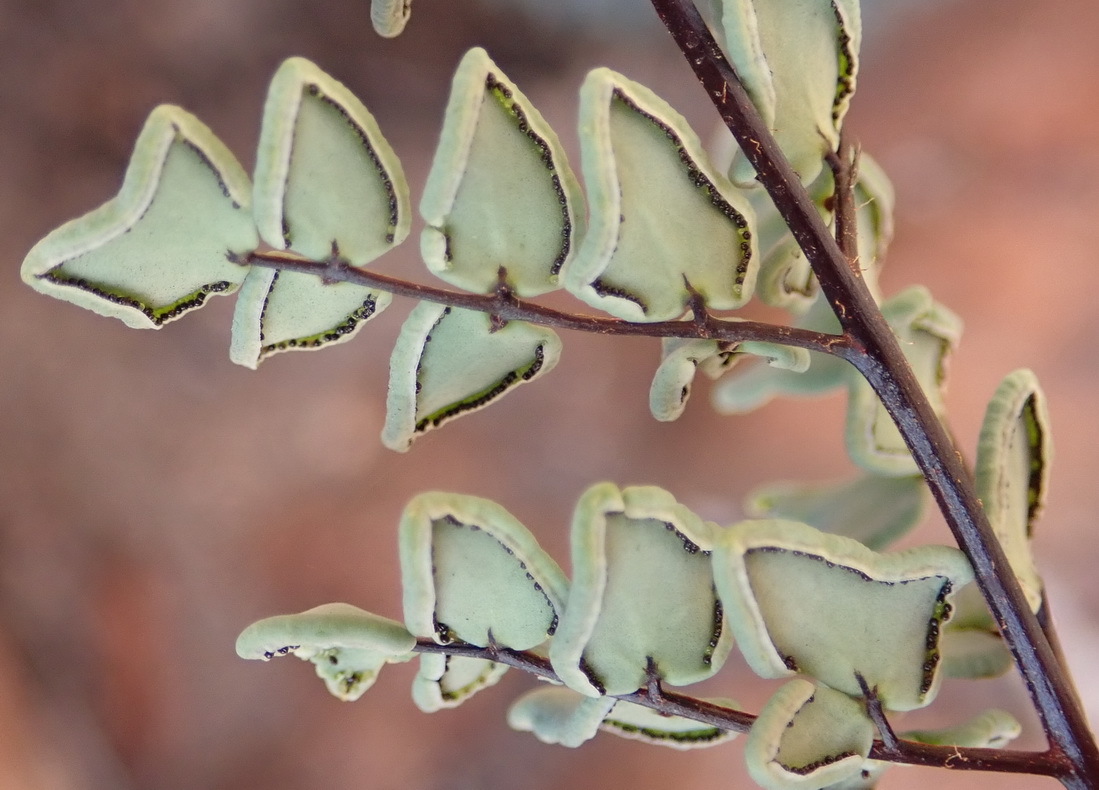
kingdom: Plantae
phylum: Tracheophyta
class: Polypodiopsida
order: Polypodiales
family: Pteridaceae
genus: Pellaea
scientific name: Pellaea calomelanos
